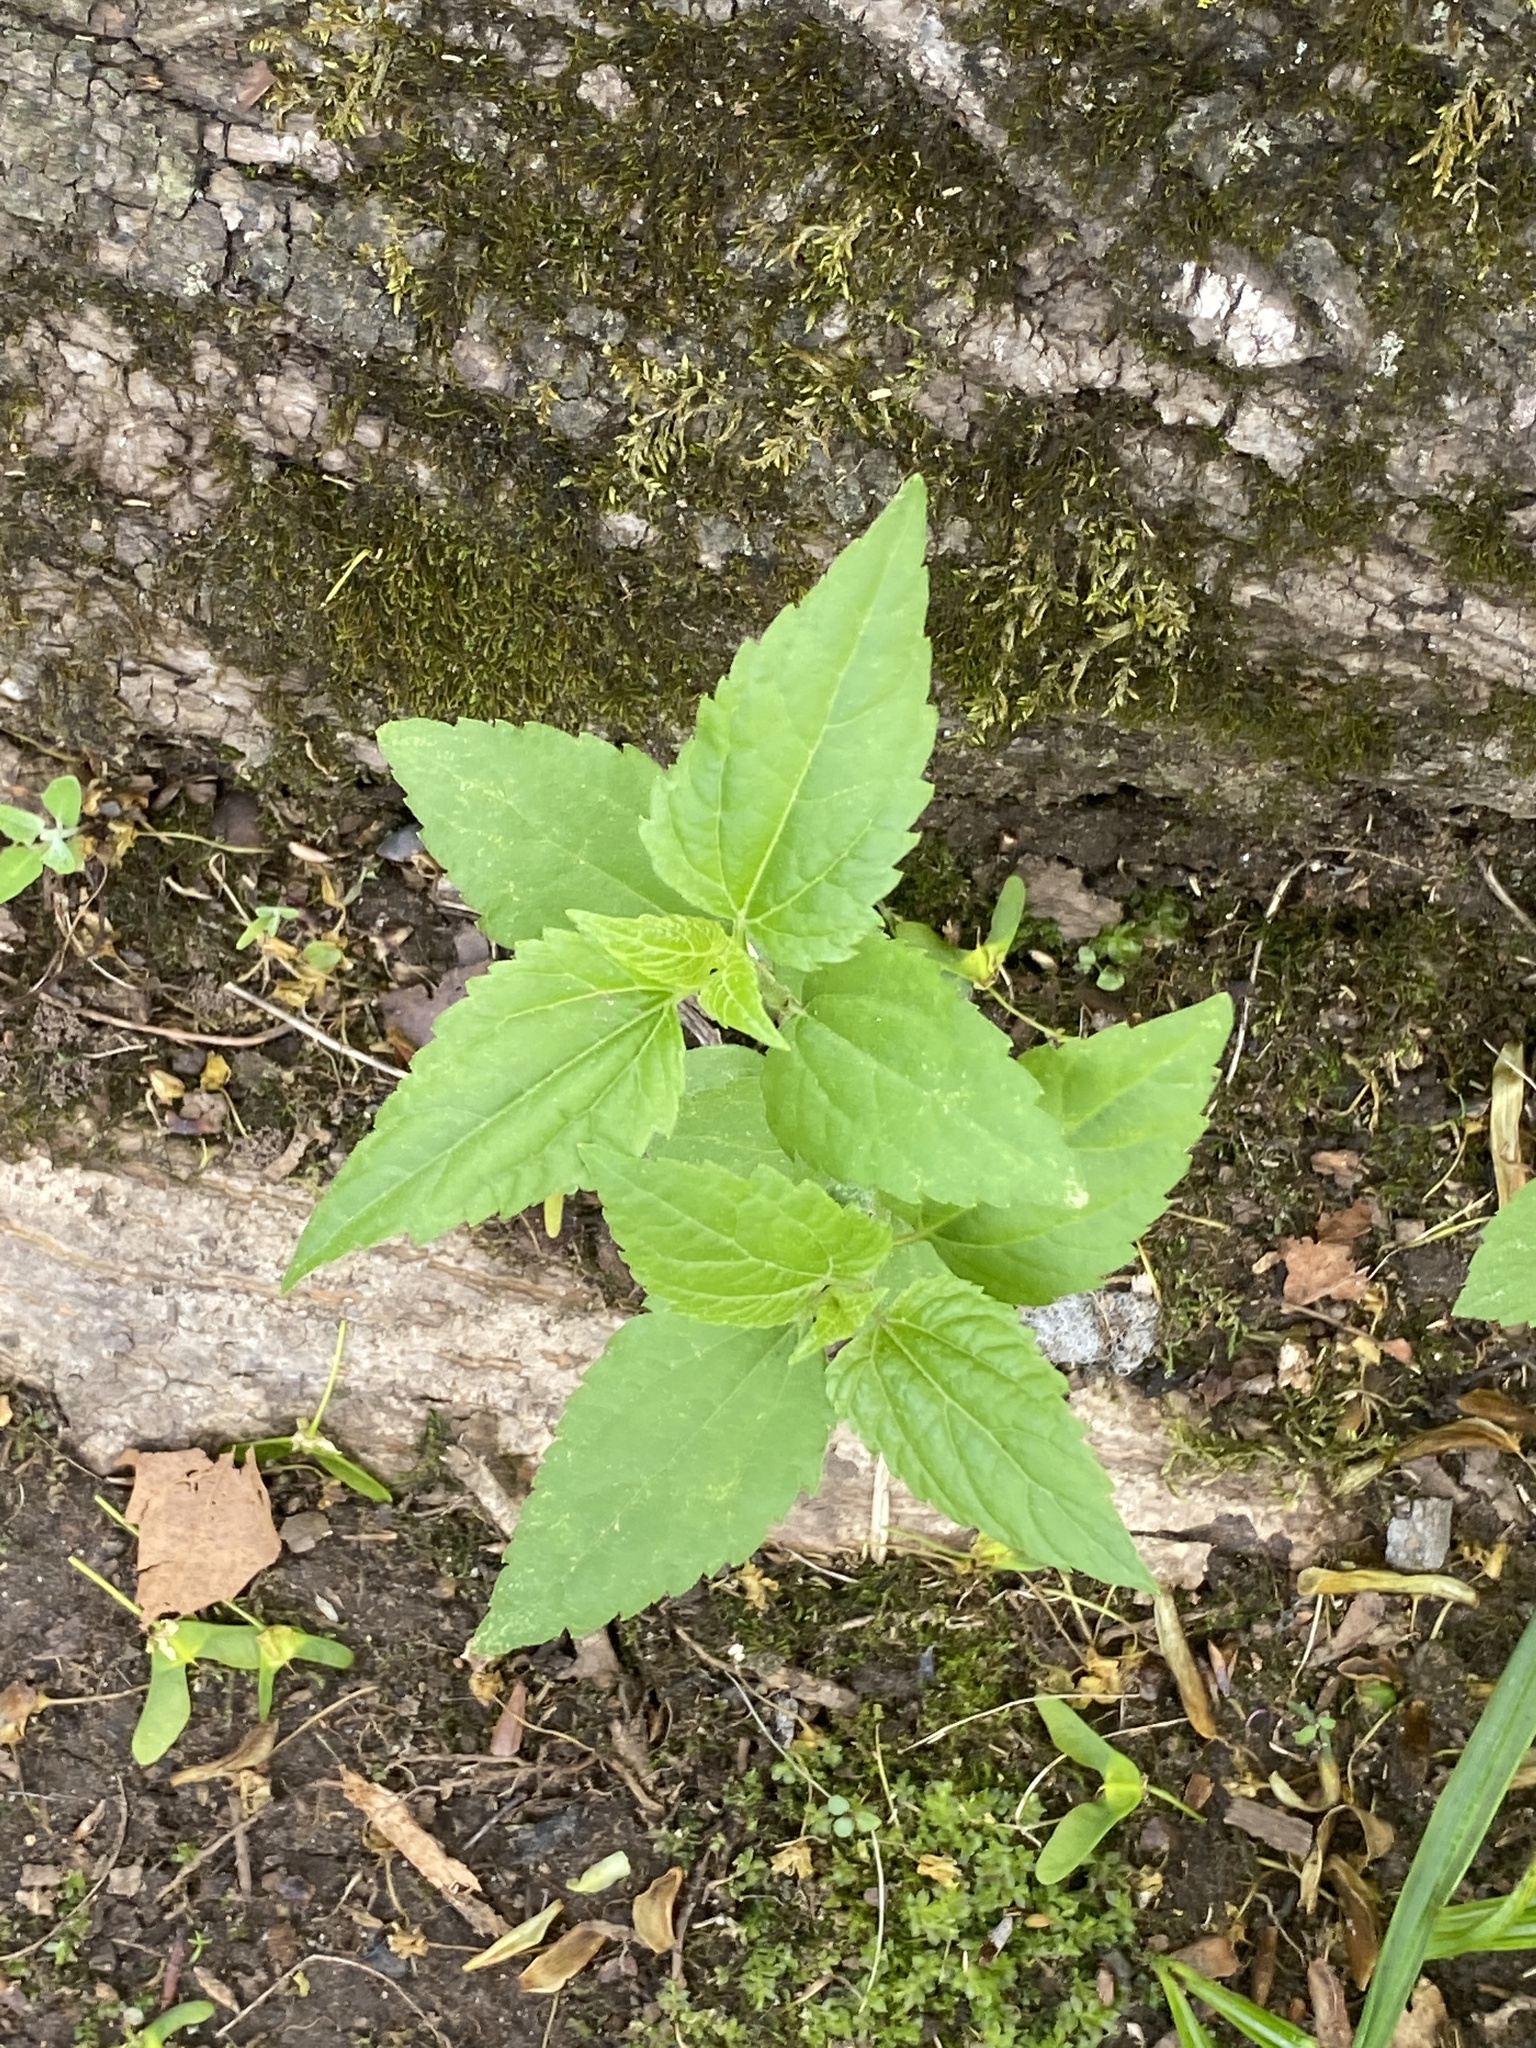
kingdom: Plantae
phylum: Tracheophyta
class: Magnoliopsida
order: Asterales
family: Asteraceae
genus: Ageratina
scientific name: Ageratina altissima
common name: White snakeroot
